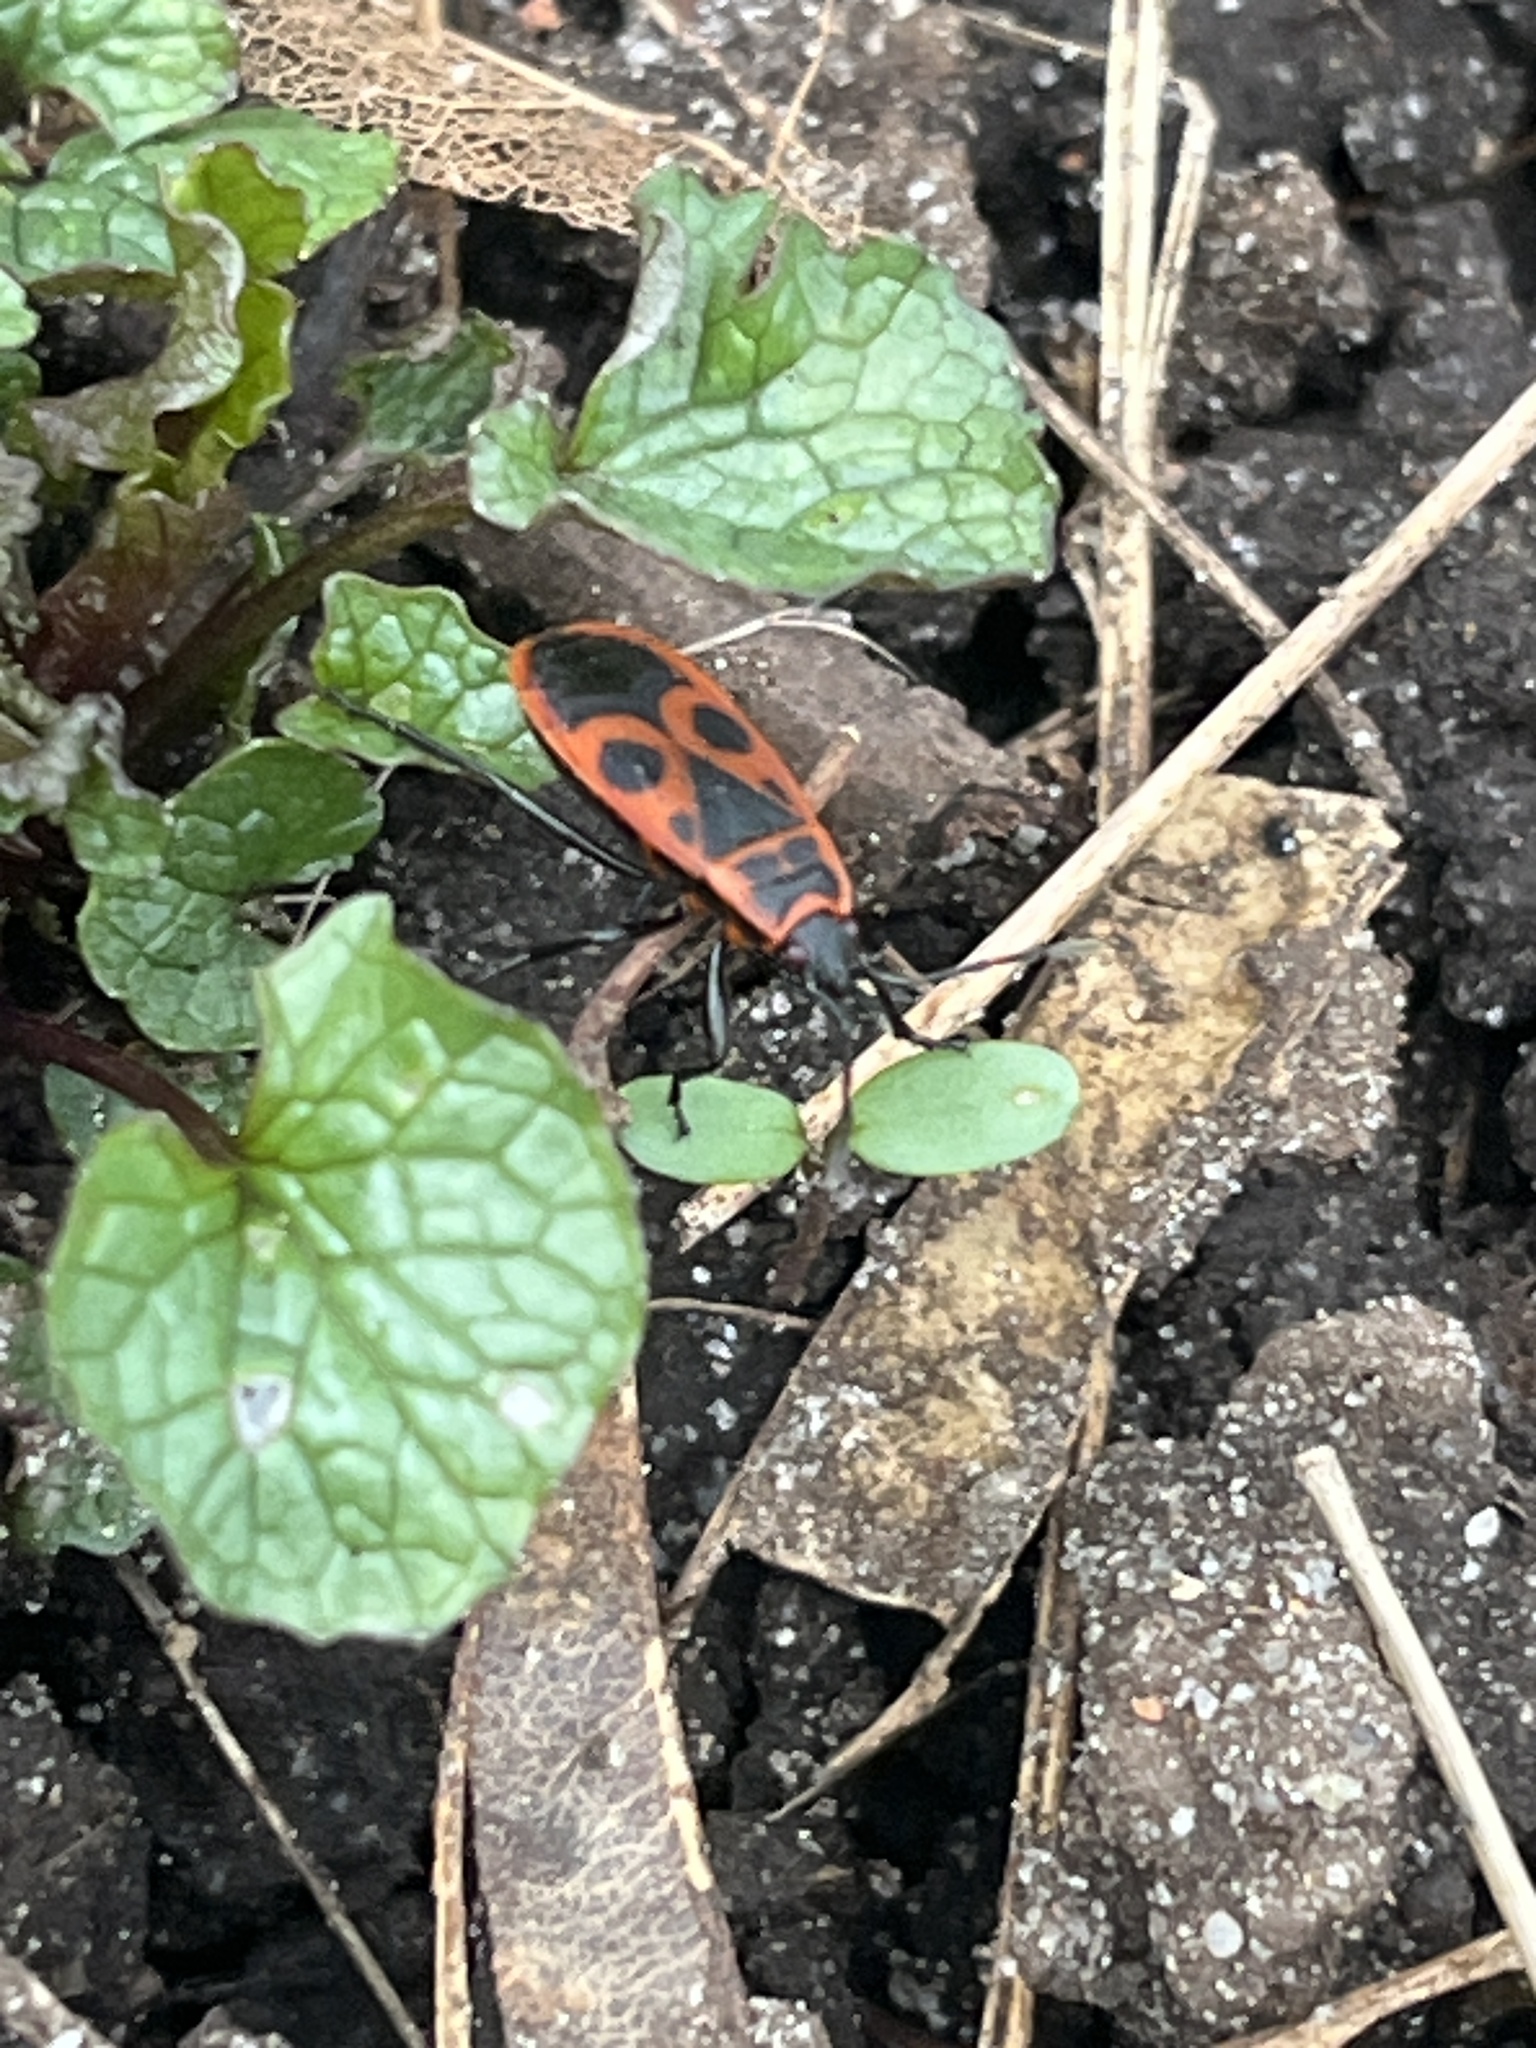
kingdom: Animalia
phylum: Arthropoda
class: Insecta
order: Hemiptera
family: Pyrrhocoridae
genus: Pyrrhocoris
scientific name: Pyrrhocoris apterus
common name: Firebug
